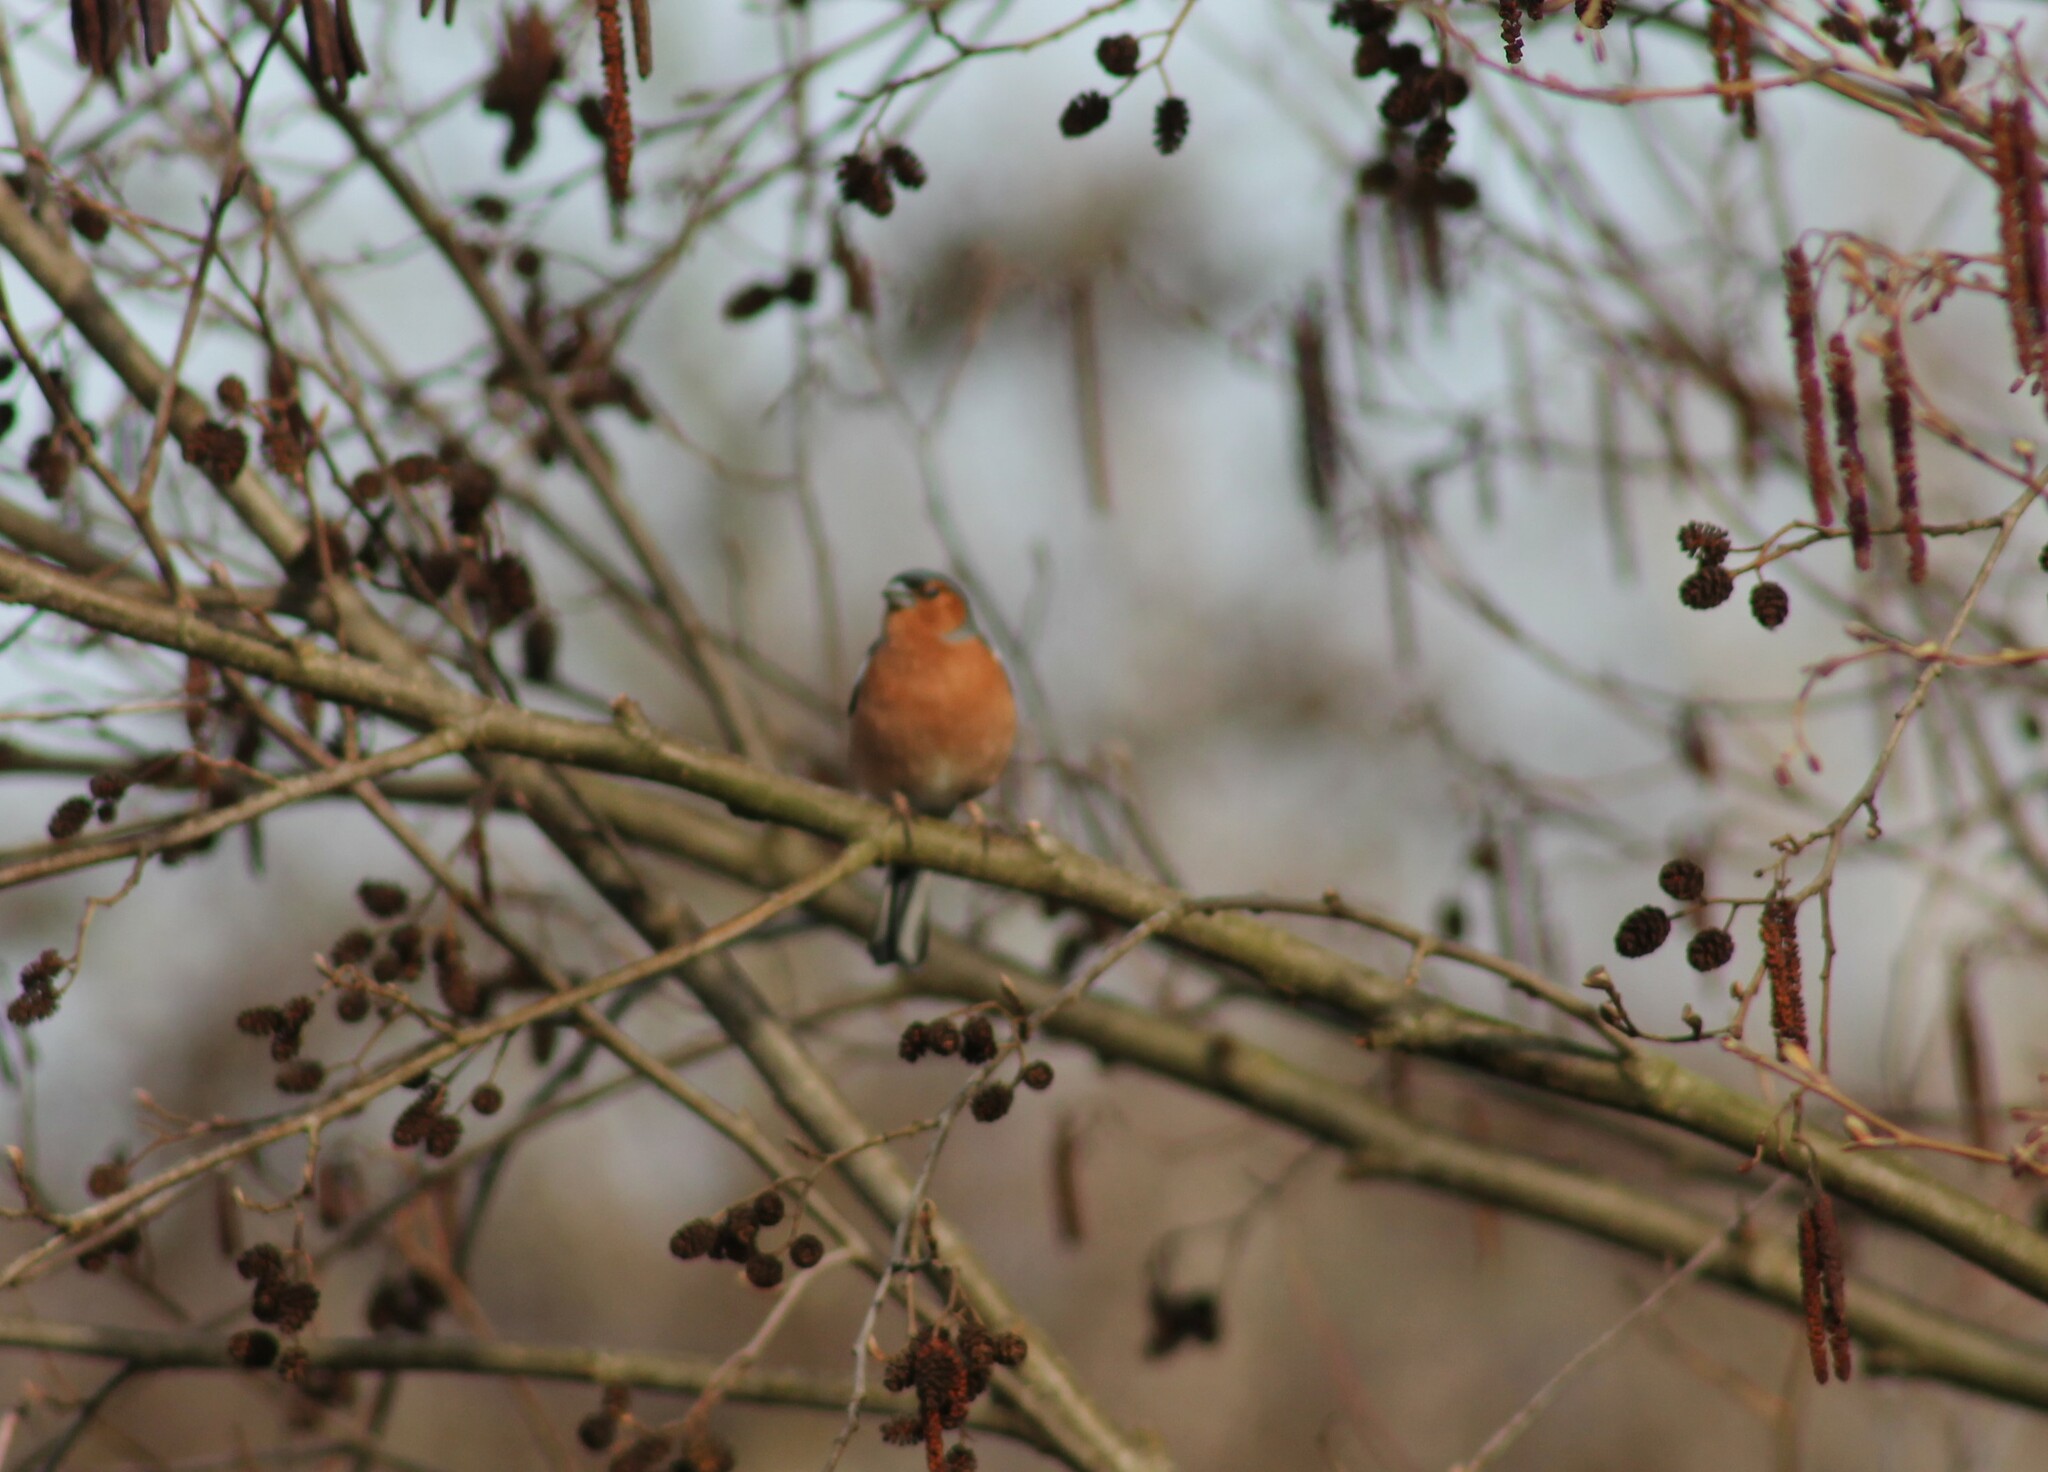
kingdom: Animalia
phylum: Chordata
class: Aves
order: Passeriformes
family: Fringillidae
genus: Fringilla
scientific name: Fringilla coelebs
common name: Common chaffinch
